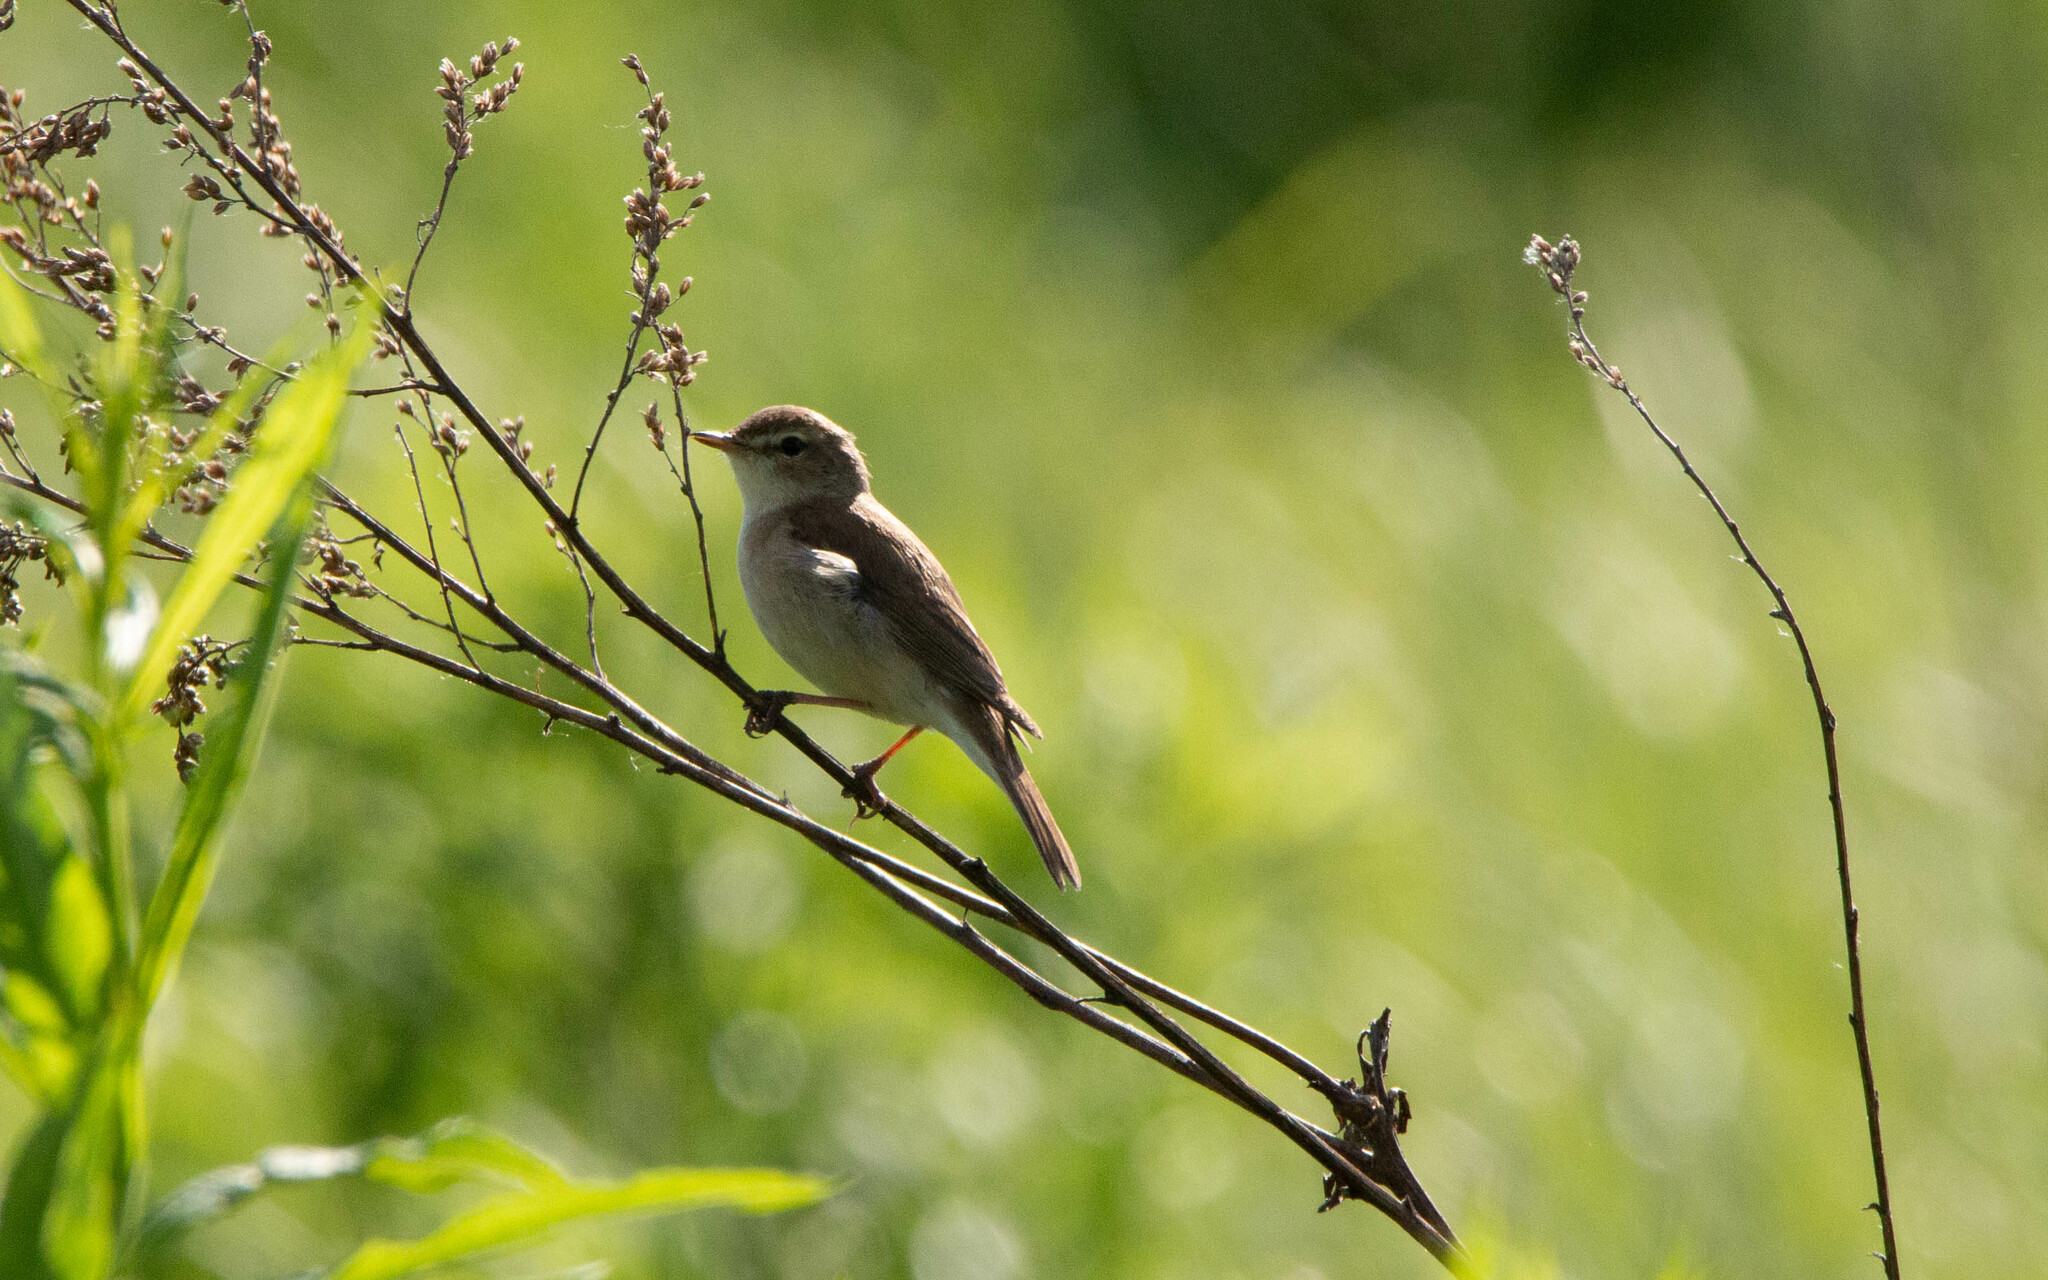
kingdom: Animalia
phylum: Chordata
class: Aves
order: Passeriformes
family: Acrocephalidae
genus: Iduna
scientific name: Iduna caligata
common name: Booted warbler
